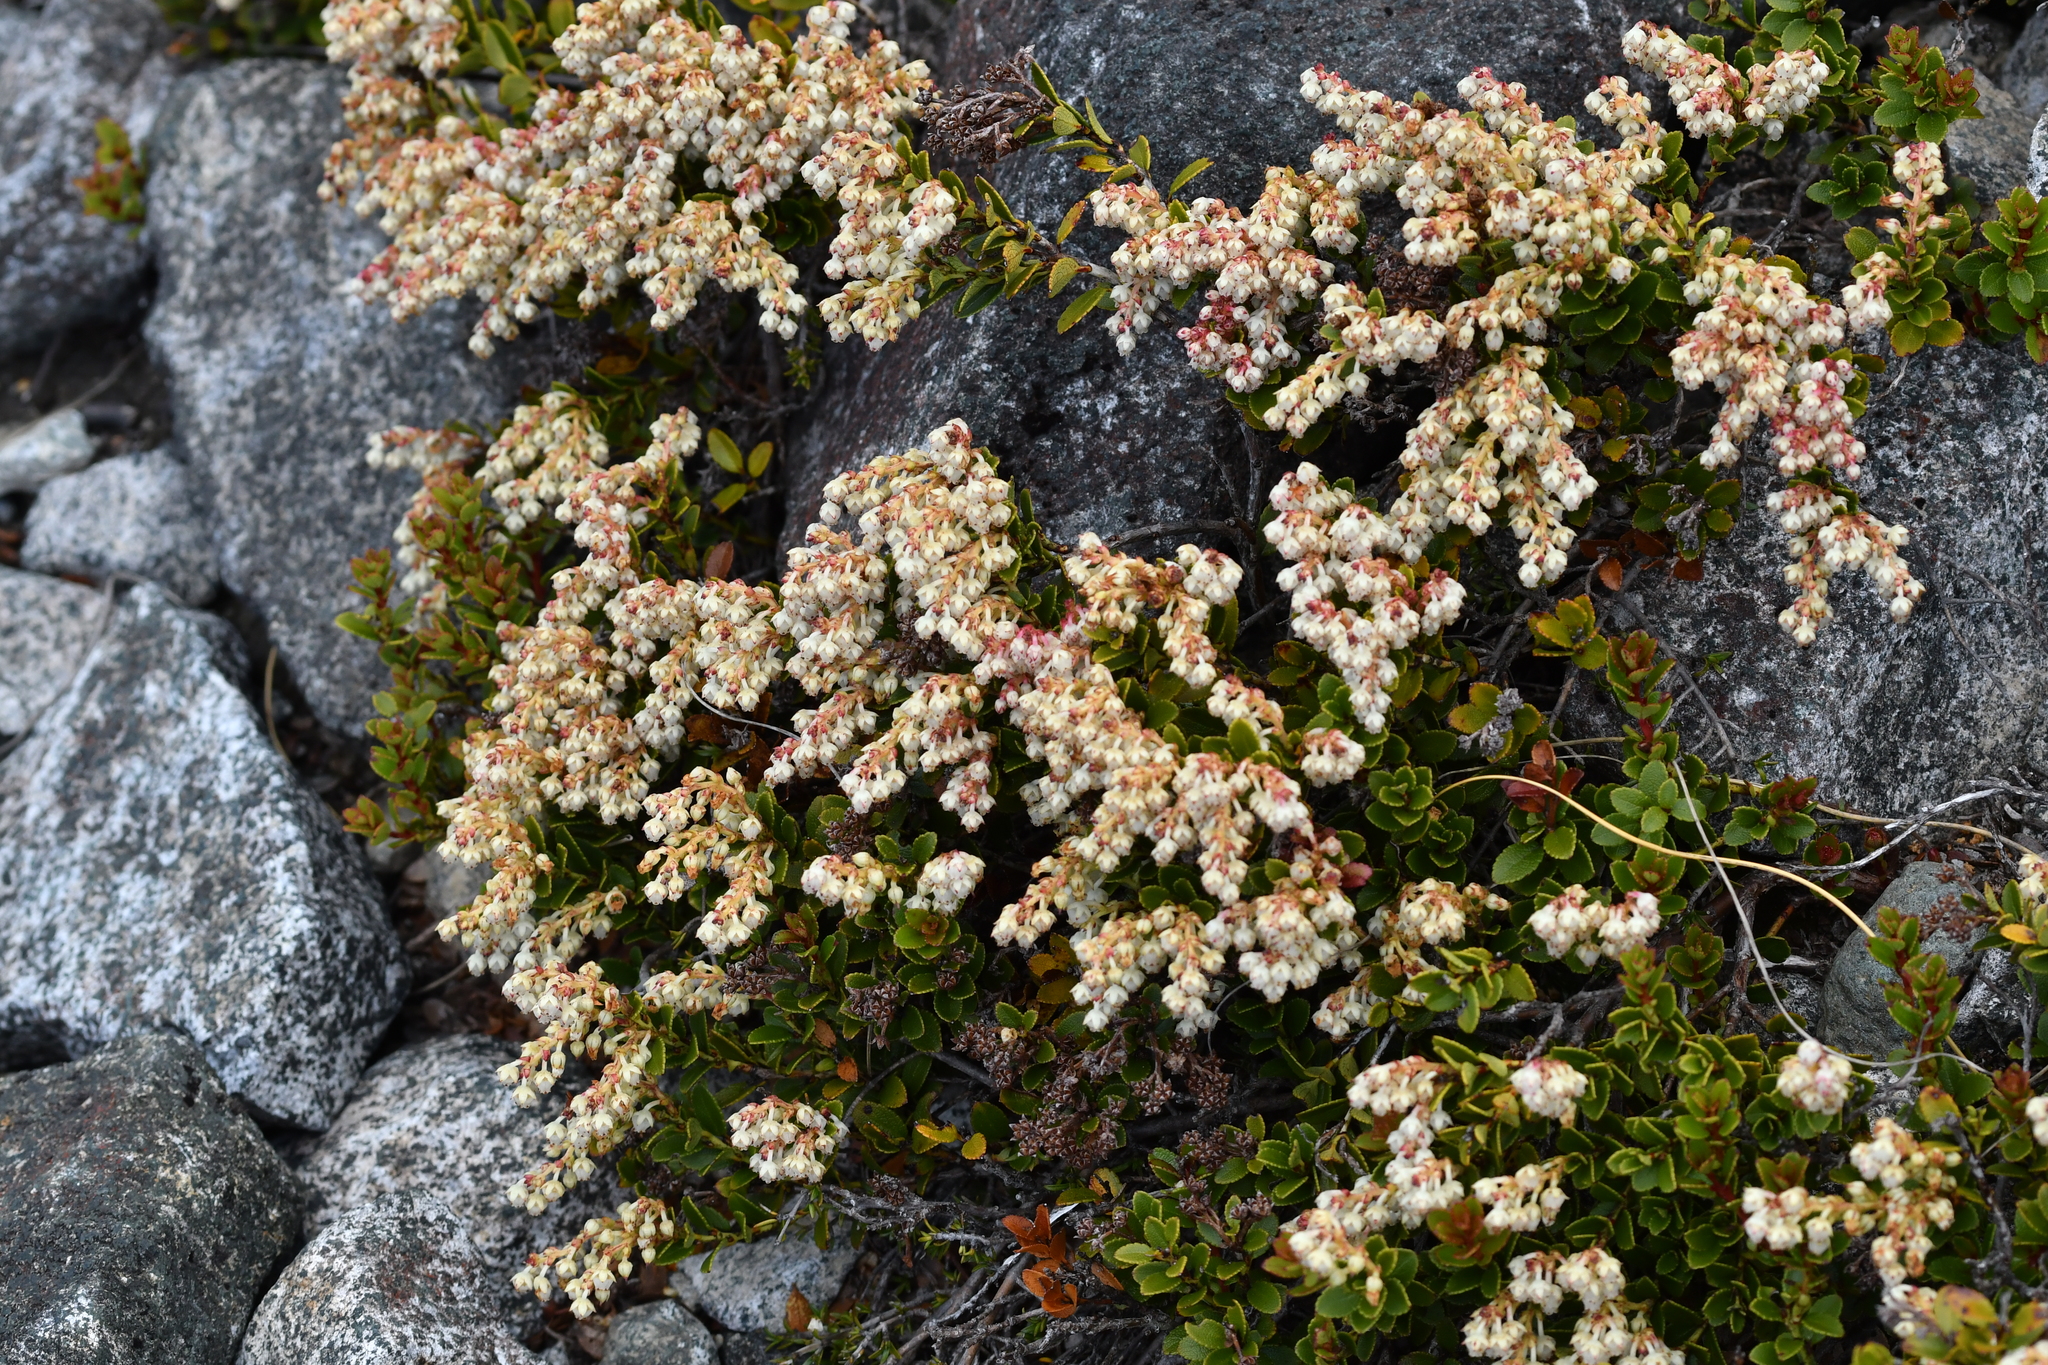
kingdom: Plantae
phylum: Tracheophyta
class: Magnoliopsida
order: Ericales
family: Ericaceae
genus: Gaultheria
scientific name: Gaultheria crassa
